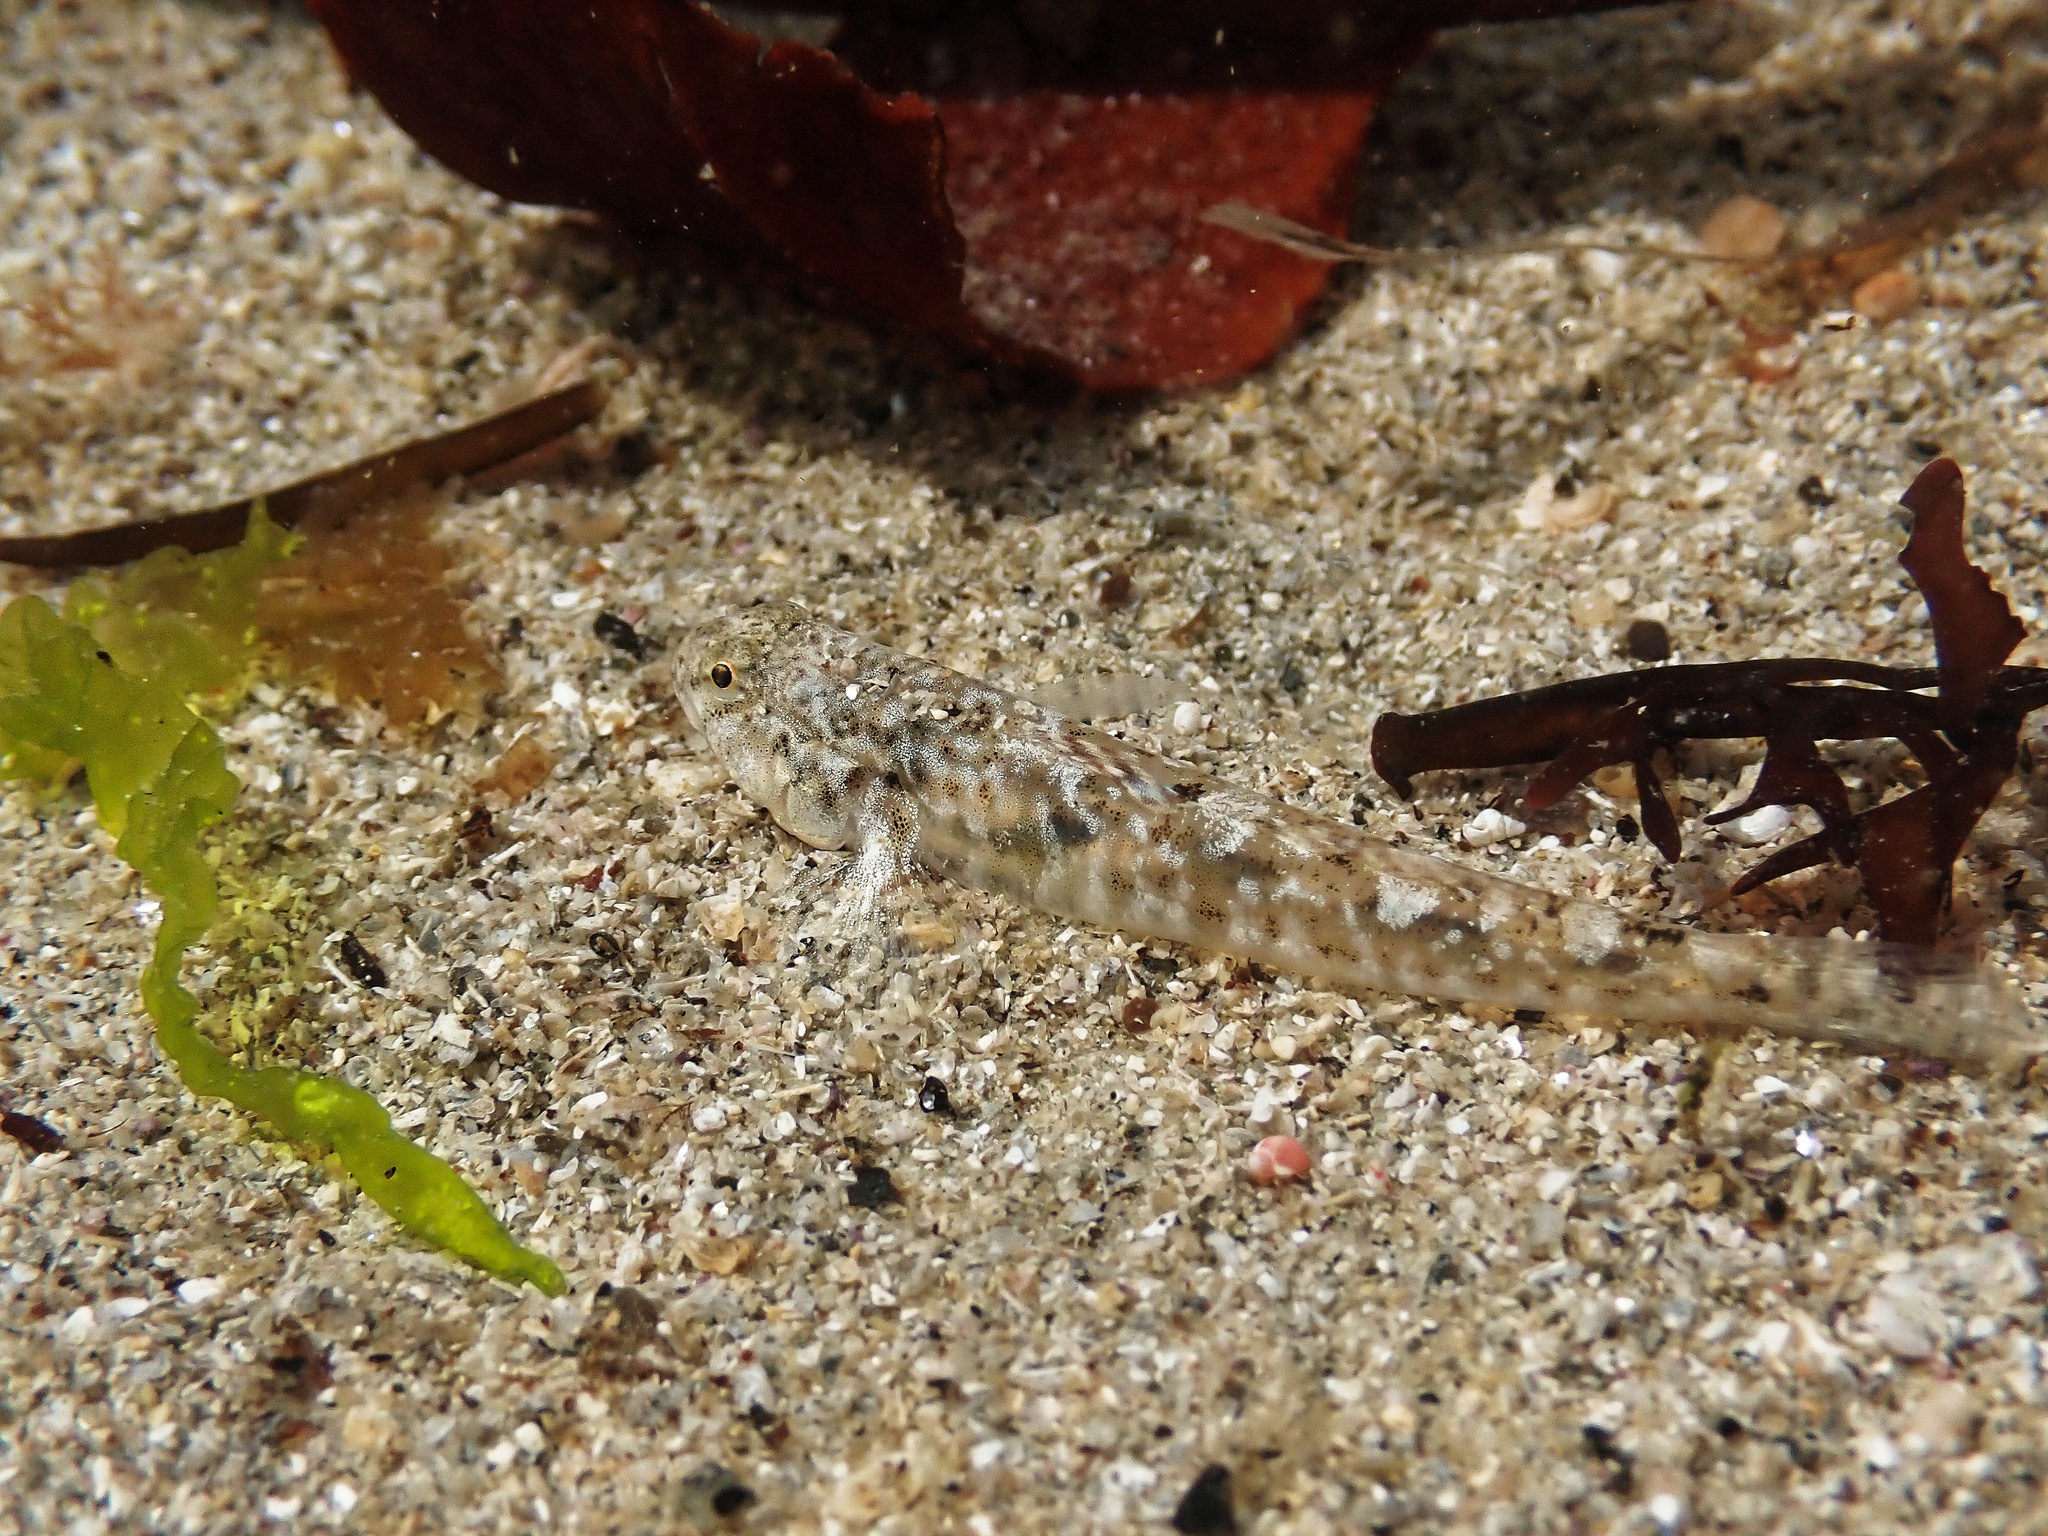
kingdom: Animalia
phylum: Chordata
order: Perciformes
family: Gobiidae
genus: Pomatoschistus
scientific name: Pomatoschistus microps
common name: Common goby
